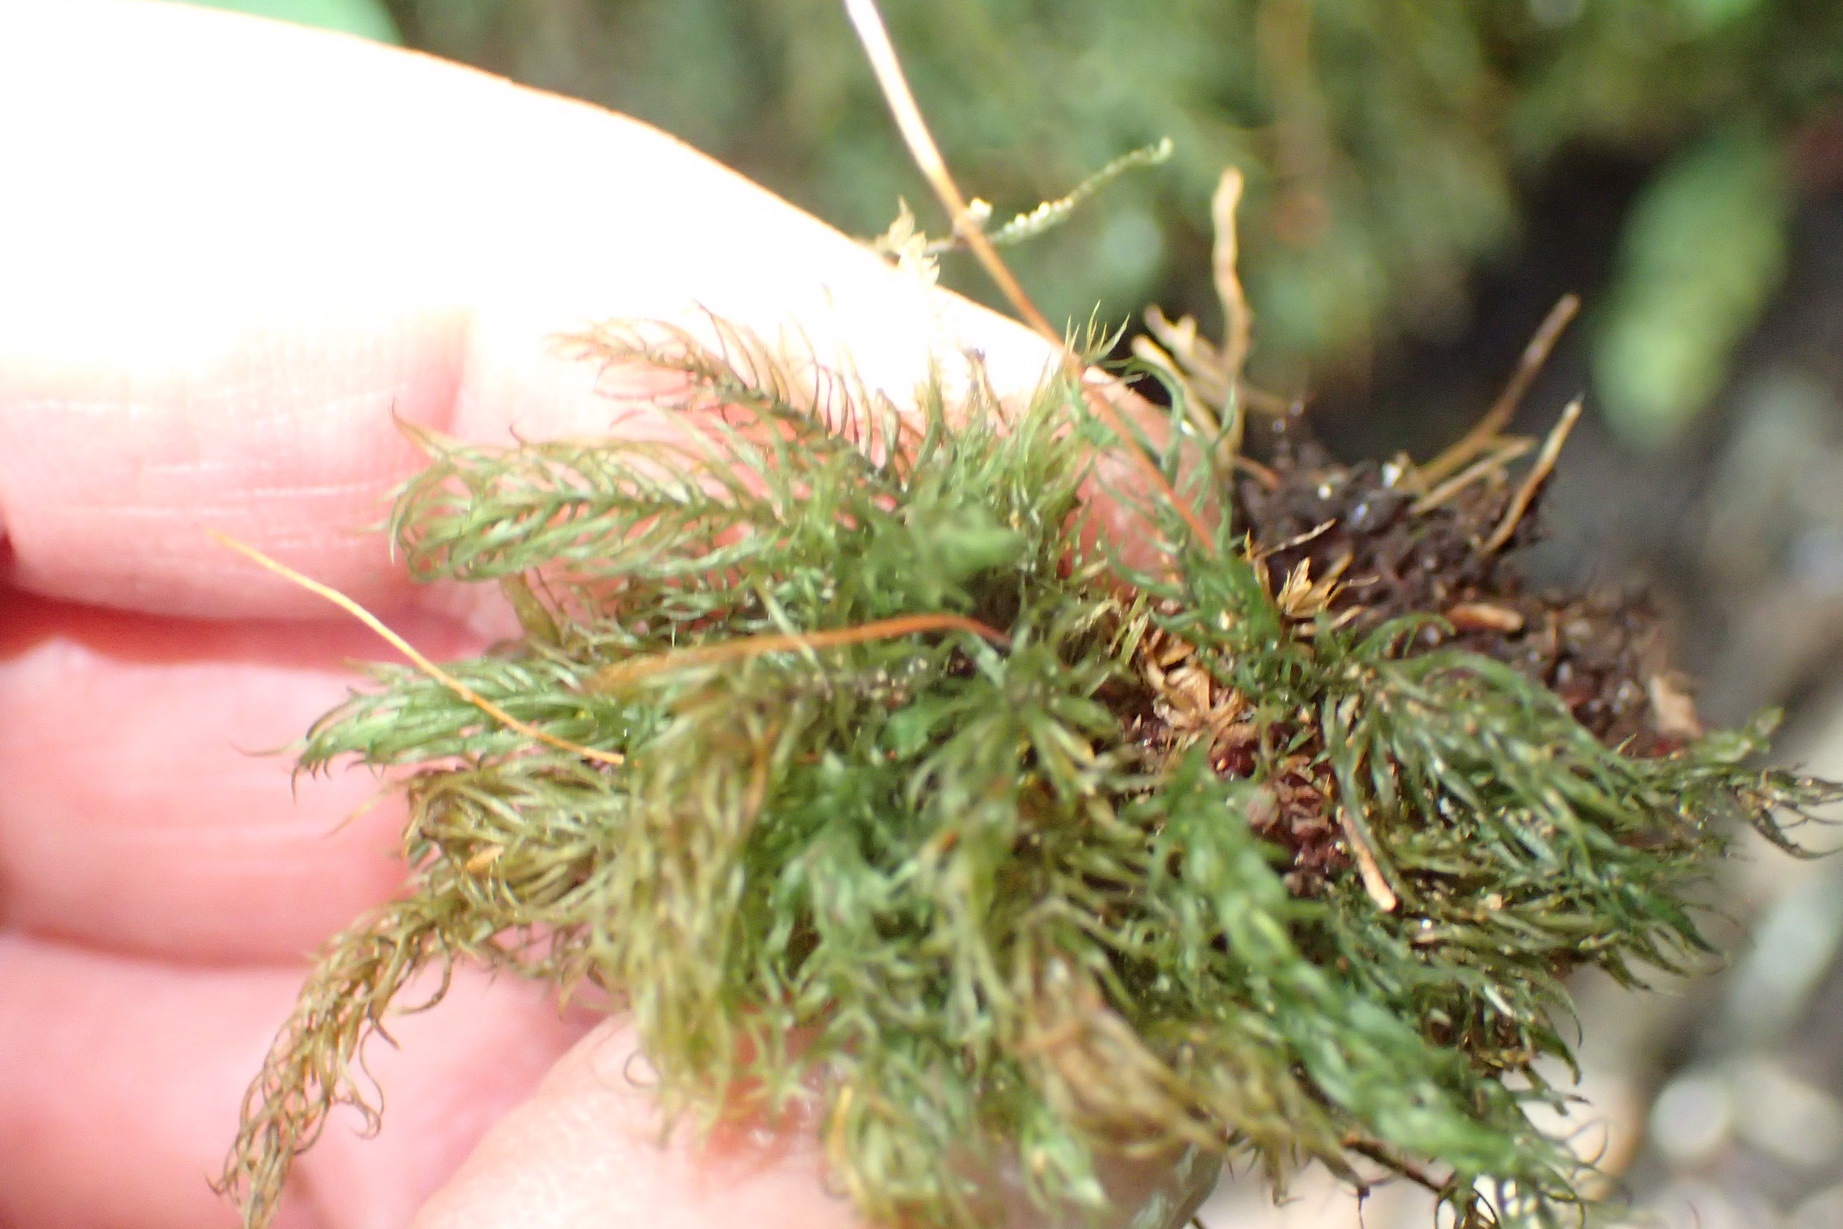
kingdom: Plantae
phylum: Bryophyta
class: Bryopsida
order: Rhizogoniales
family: Calomniaceae
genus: Pyrrhobryum
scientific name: Pyrrhobryum spiniforme
